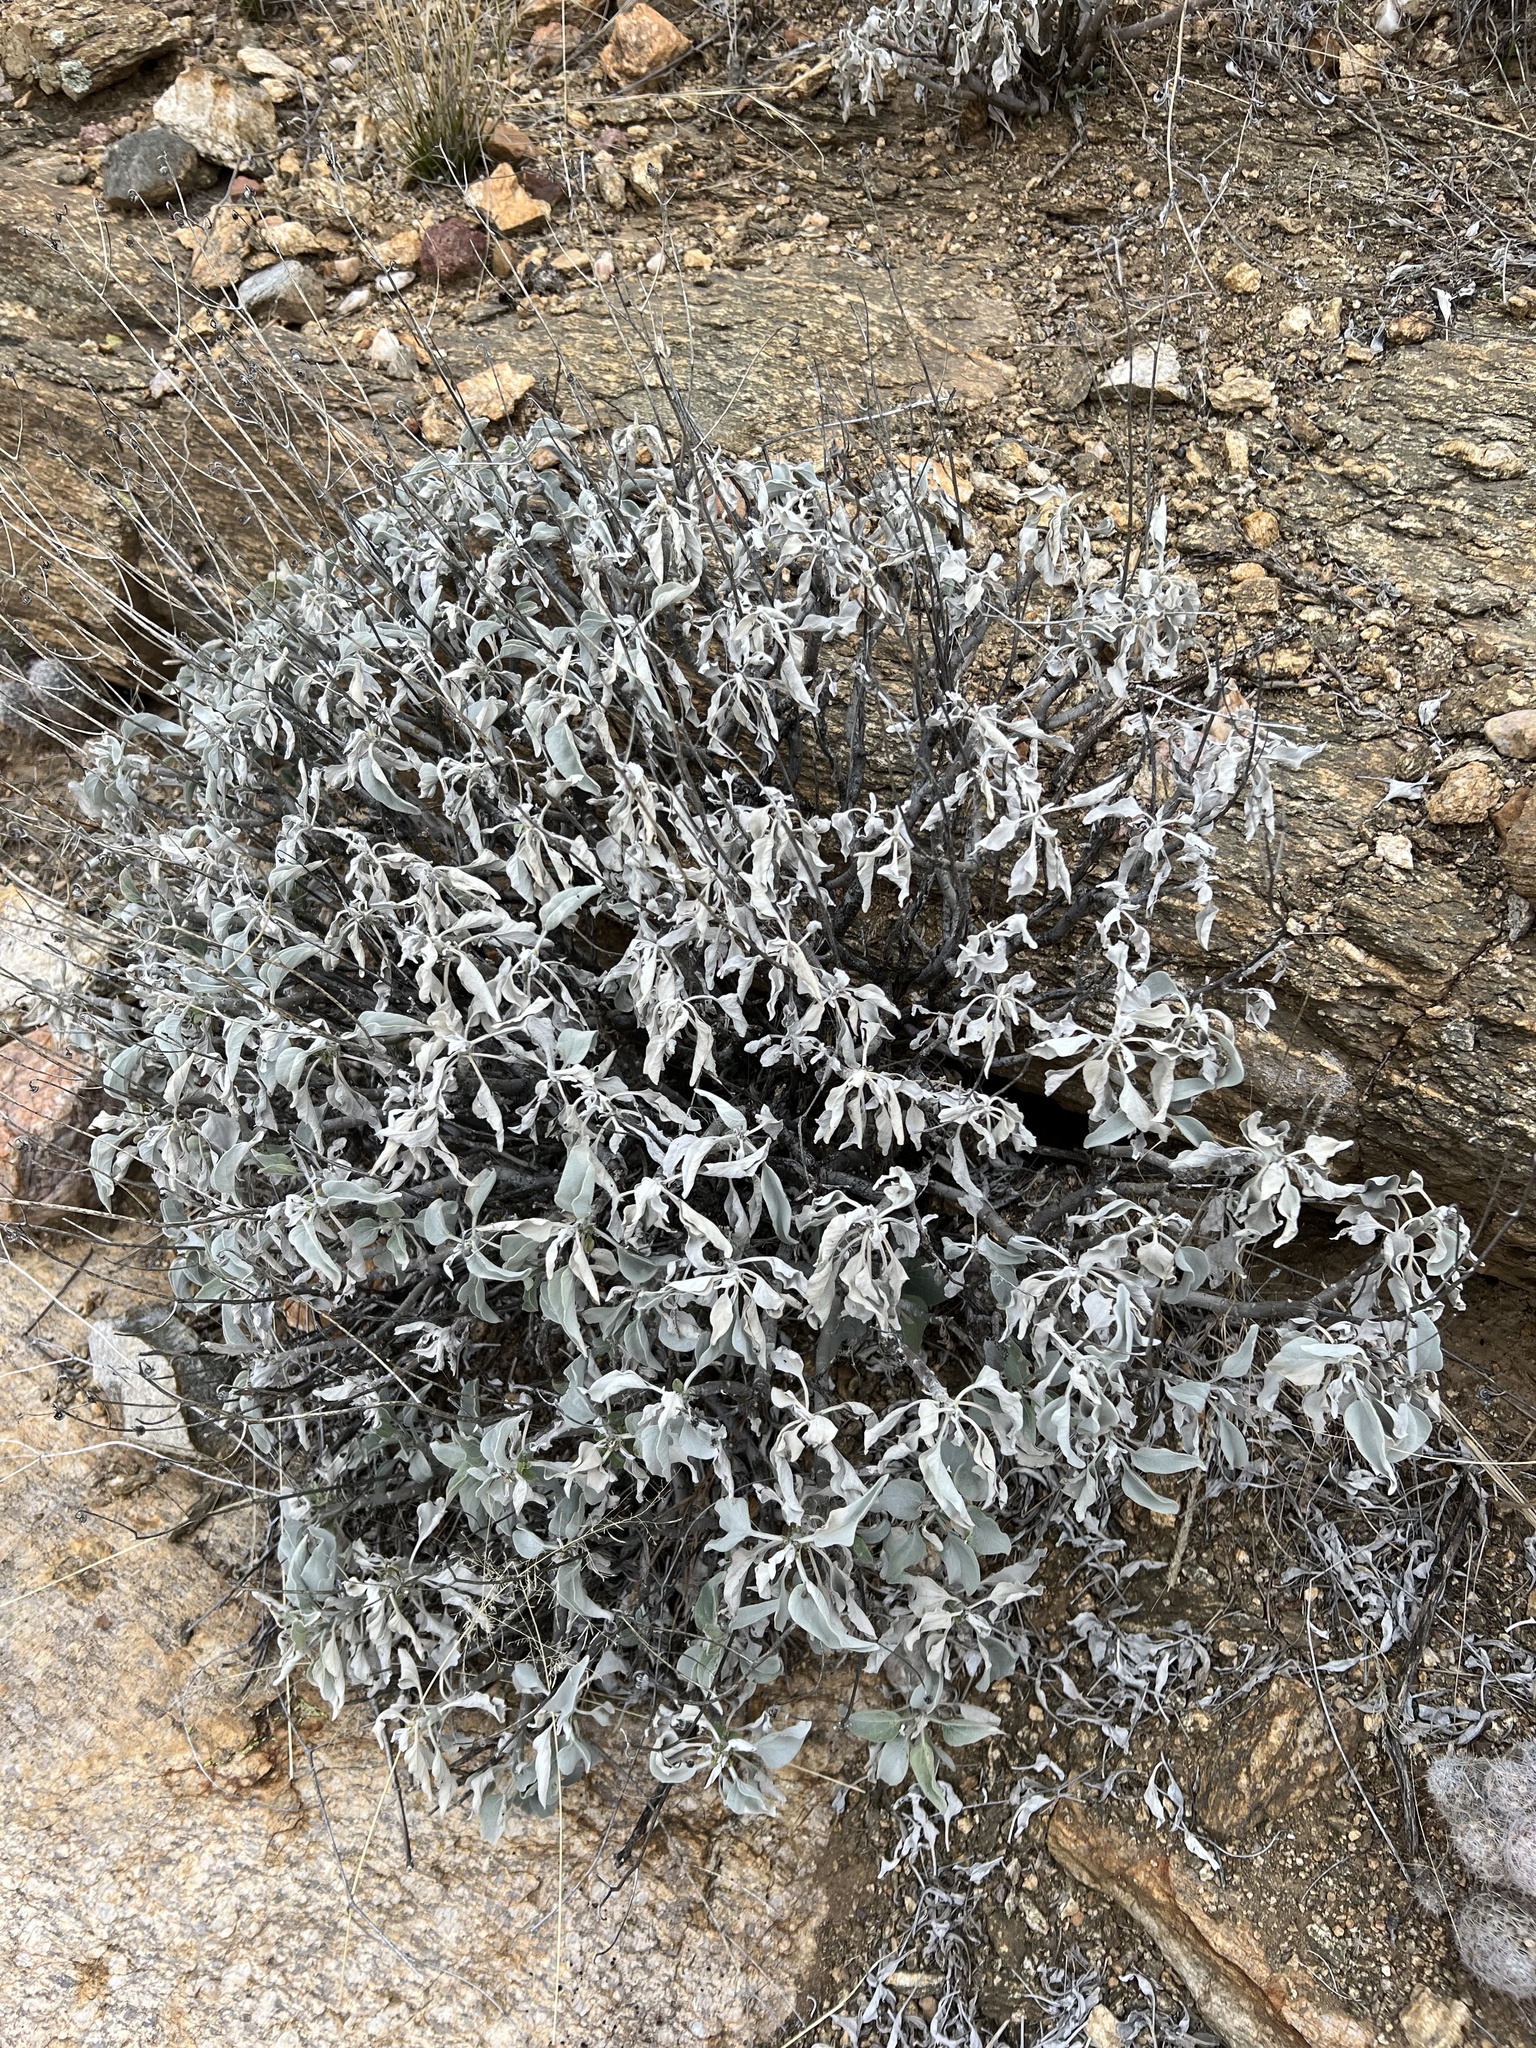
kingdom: Plantae
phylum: Tracheophyta
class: Magnoliopsida
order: Asterales
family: Asteraceae
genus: Encelia
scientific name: Encelia farinosa
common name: Brittlebush
